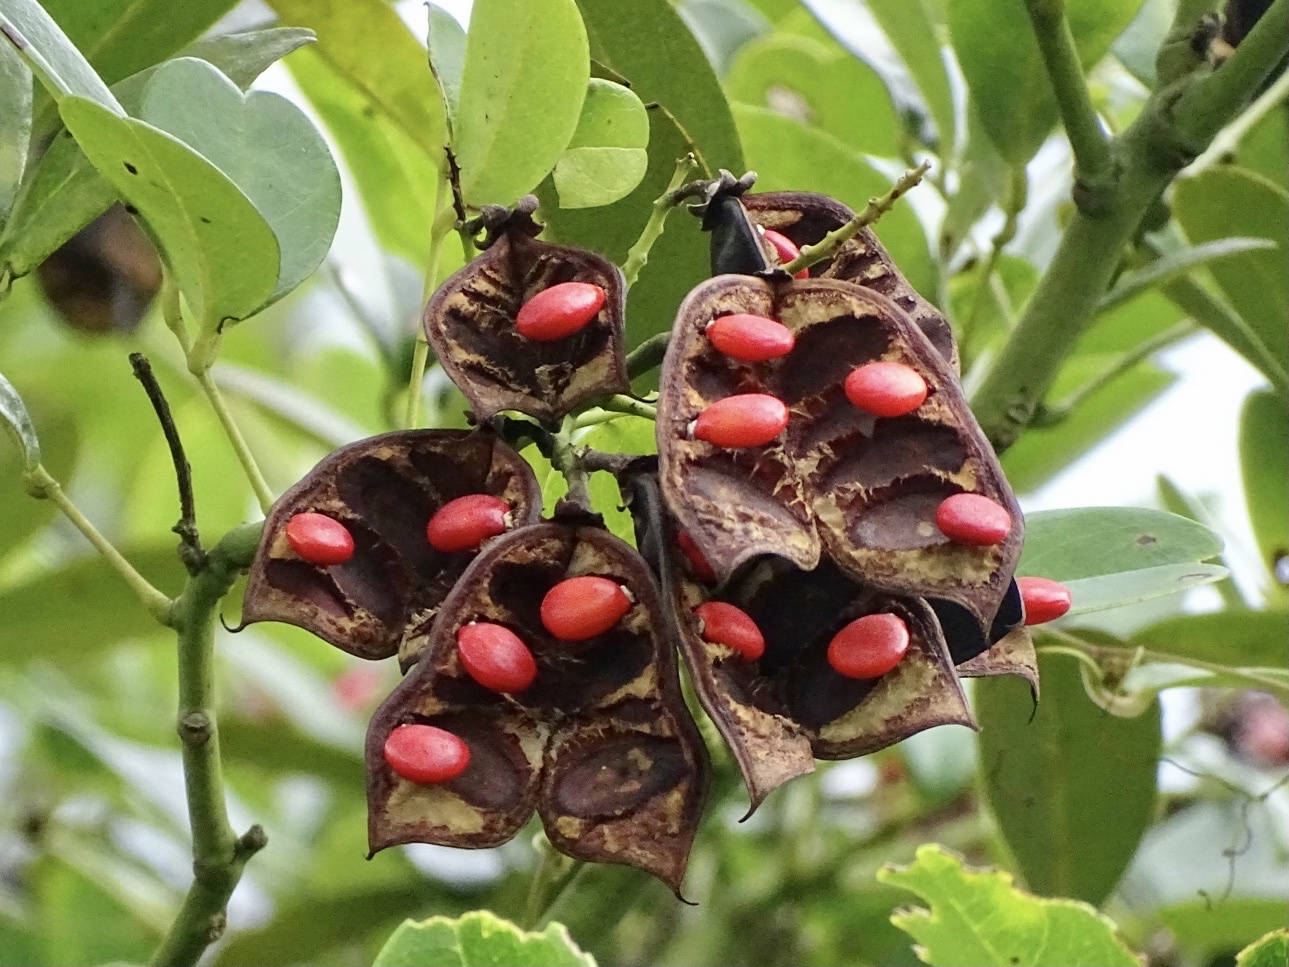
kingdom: Plantae
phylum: Tracheophyta
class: Magnoliopsida
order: Fabales
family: Fabaceae
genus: Ormosia
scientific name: Ormosia emarginata
